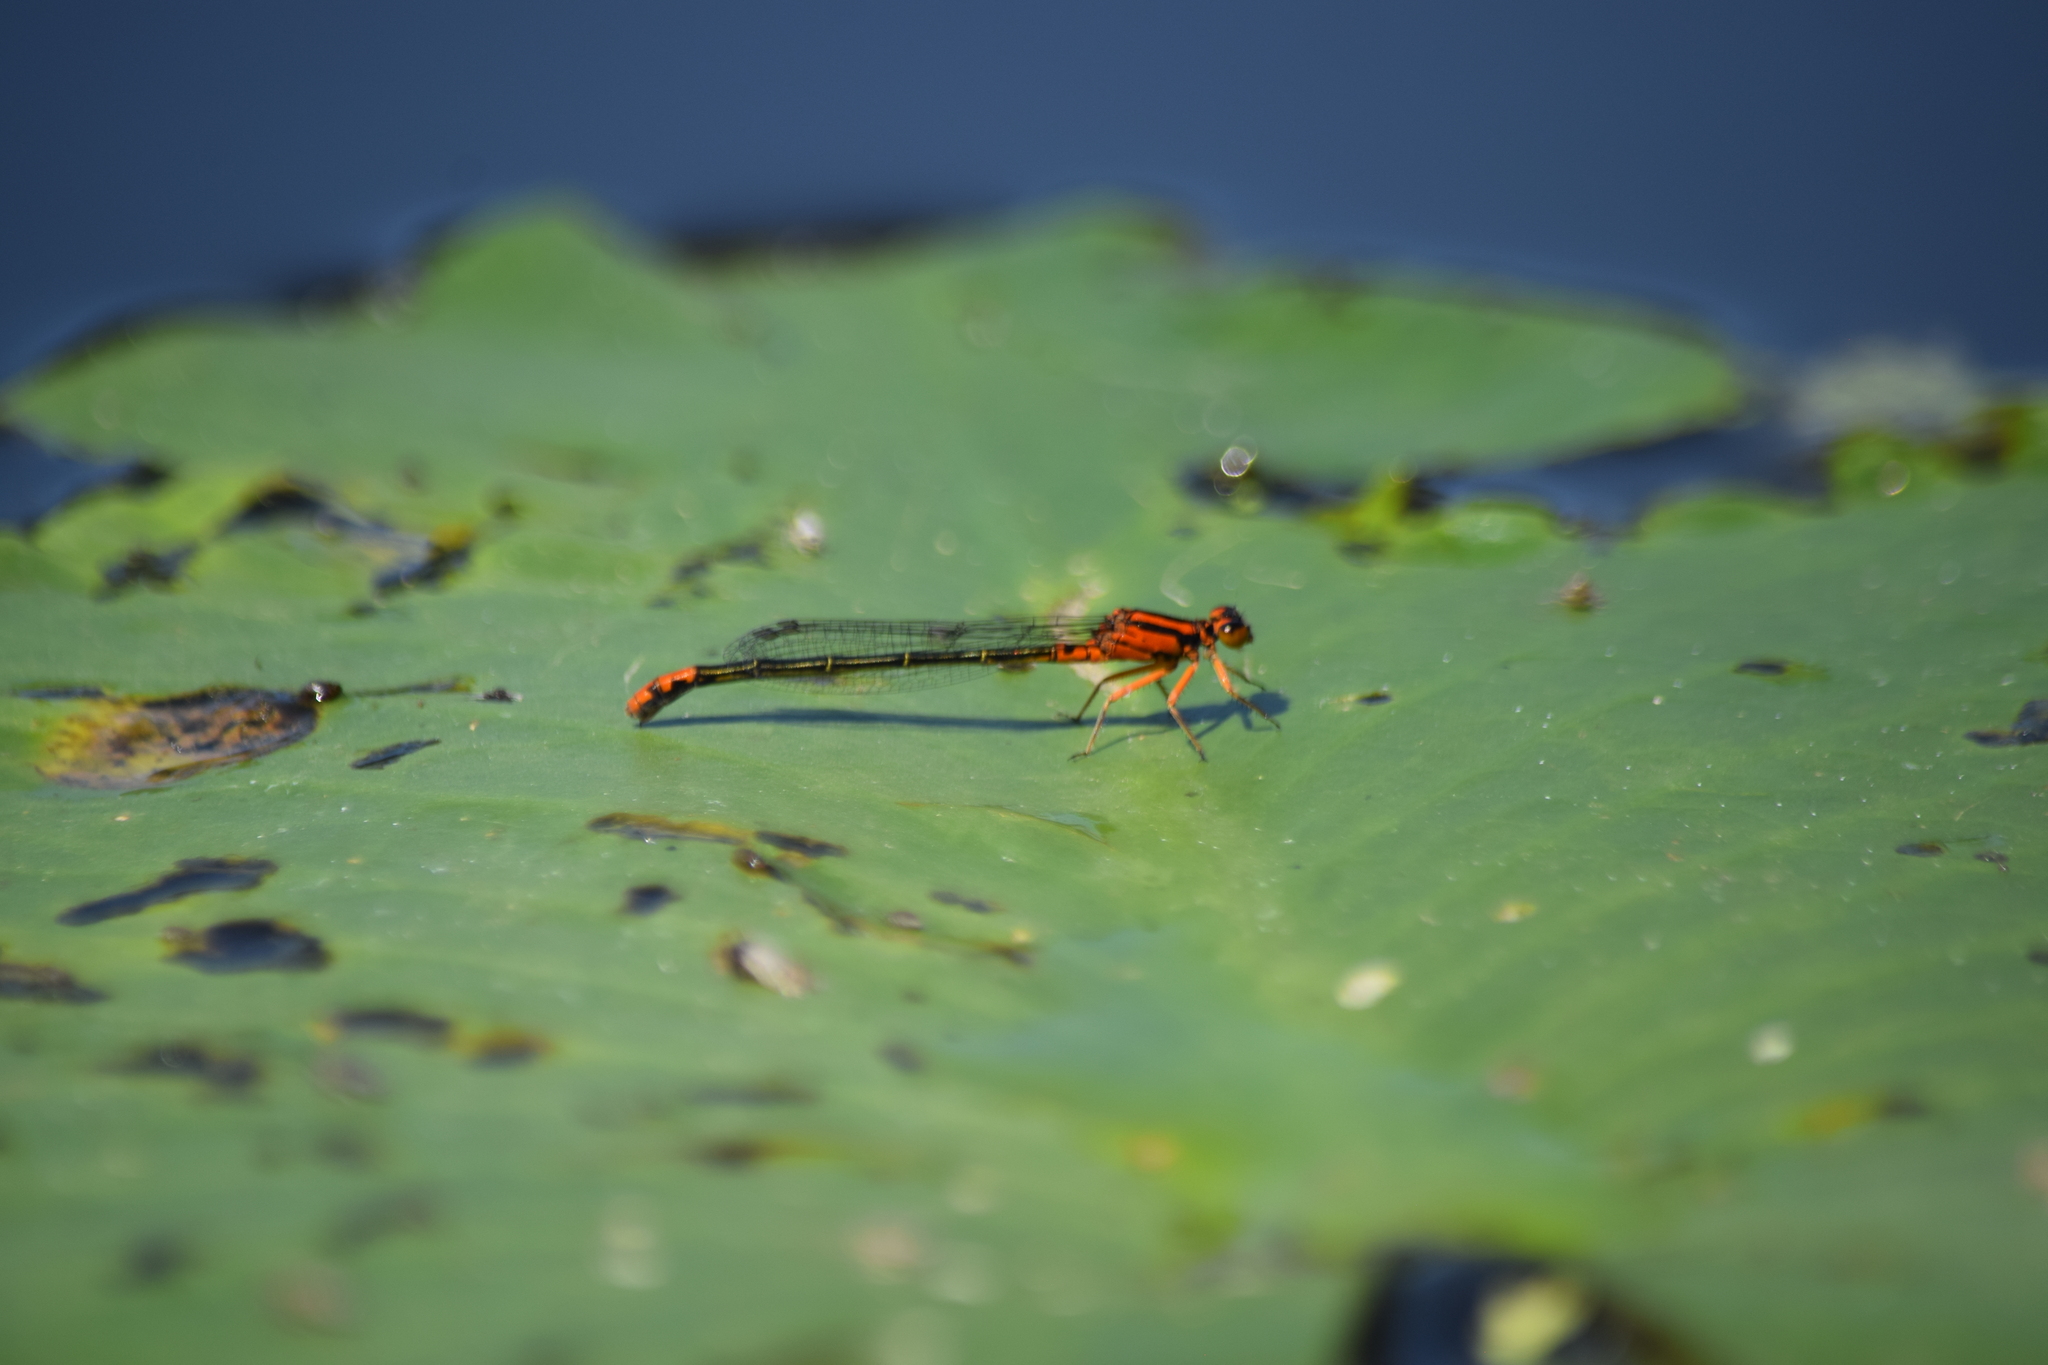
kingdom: Animalia
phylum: Arthropoda
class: Insecta
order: Odonata
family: Coenagrionidae
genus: Ischnura
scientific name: Ischnura kellicotti
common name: Lilypad forktail
